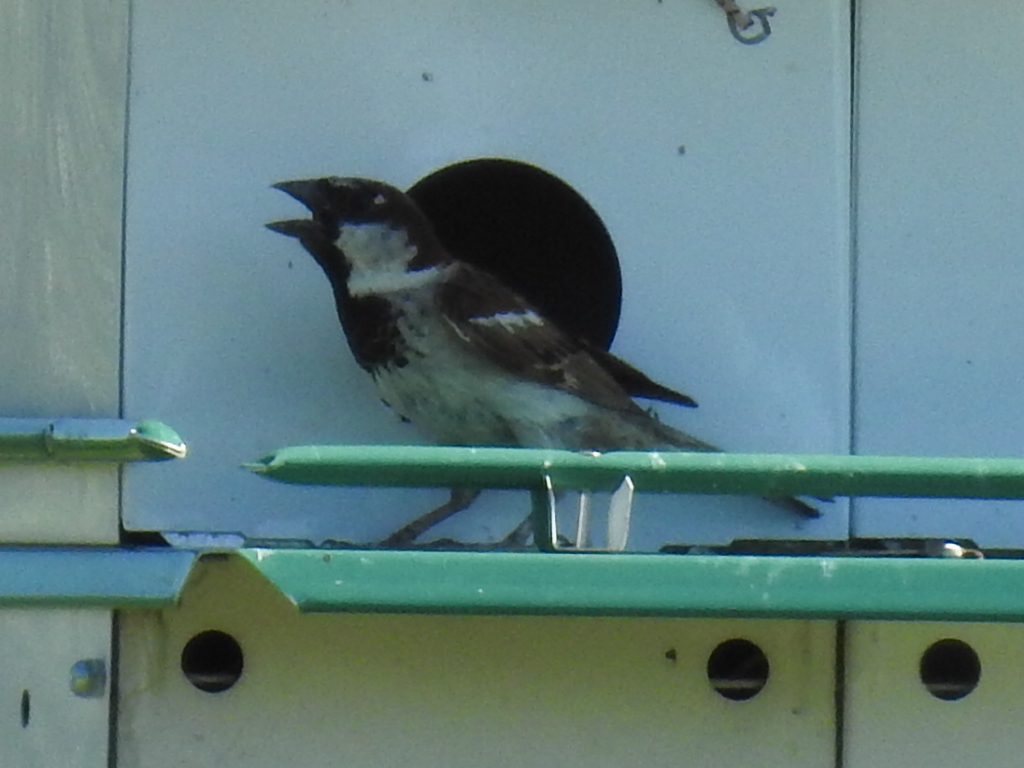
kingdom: Animalia
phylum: Chordata
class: Aves
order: Passeriformes
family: Passeridae
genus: Passer
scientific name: Passer domesticus
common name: House sparrow
